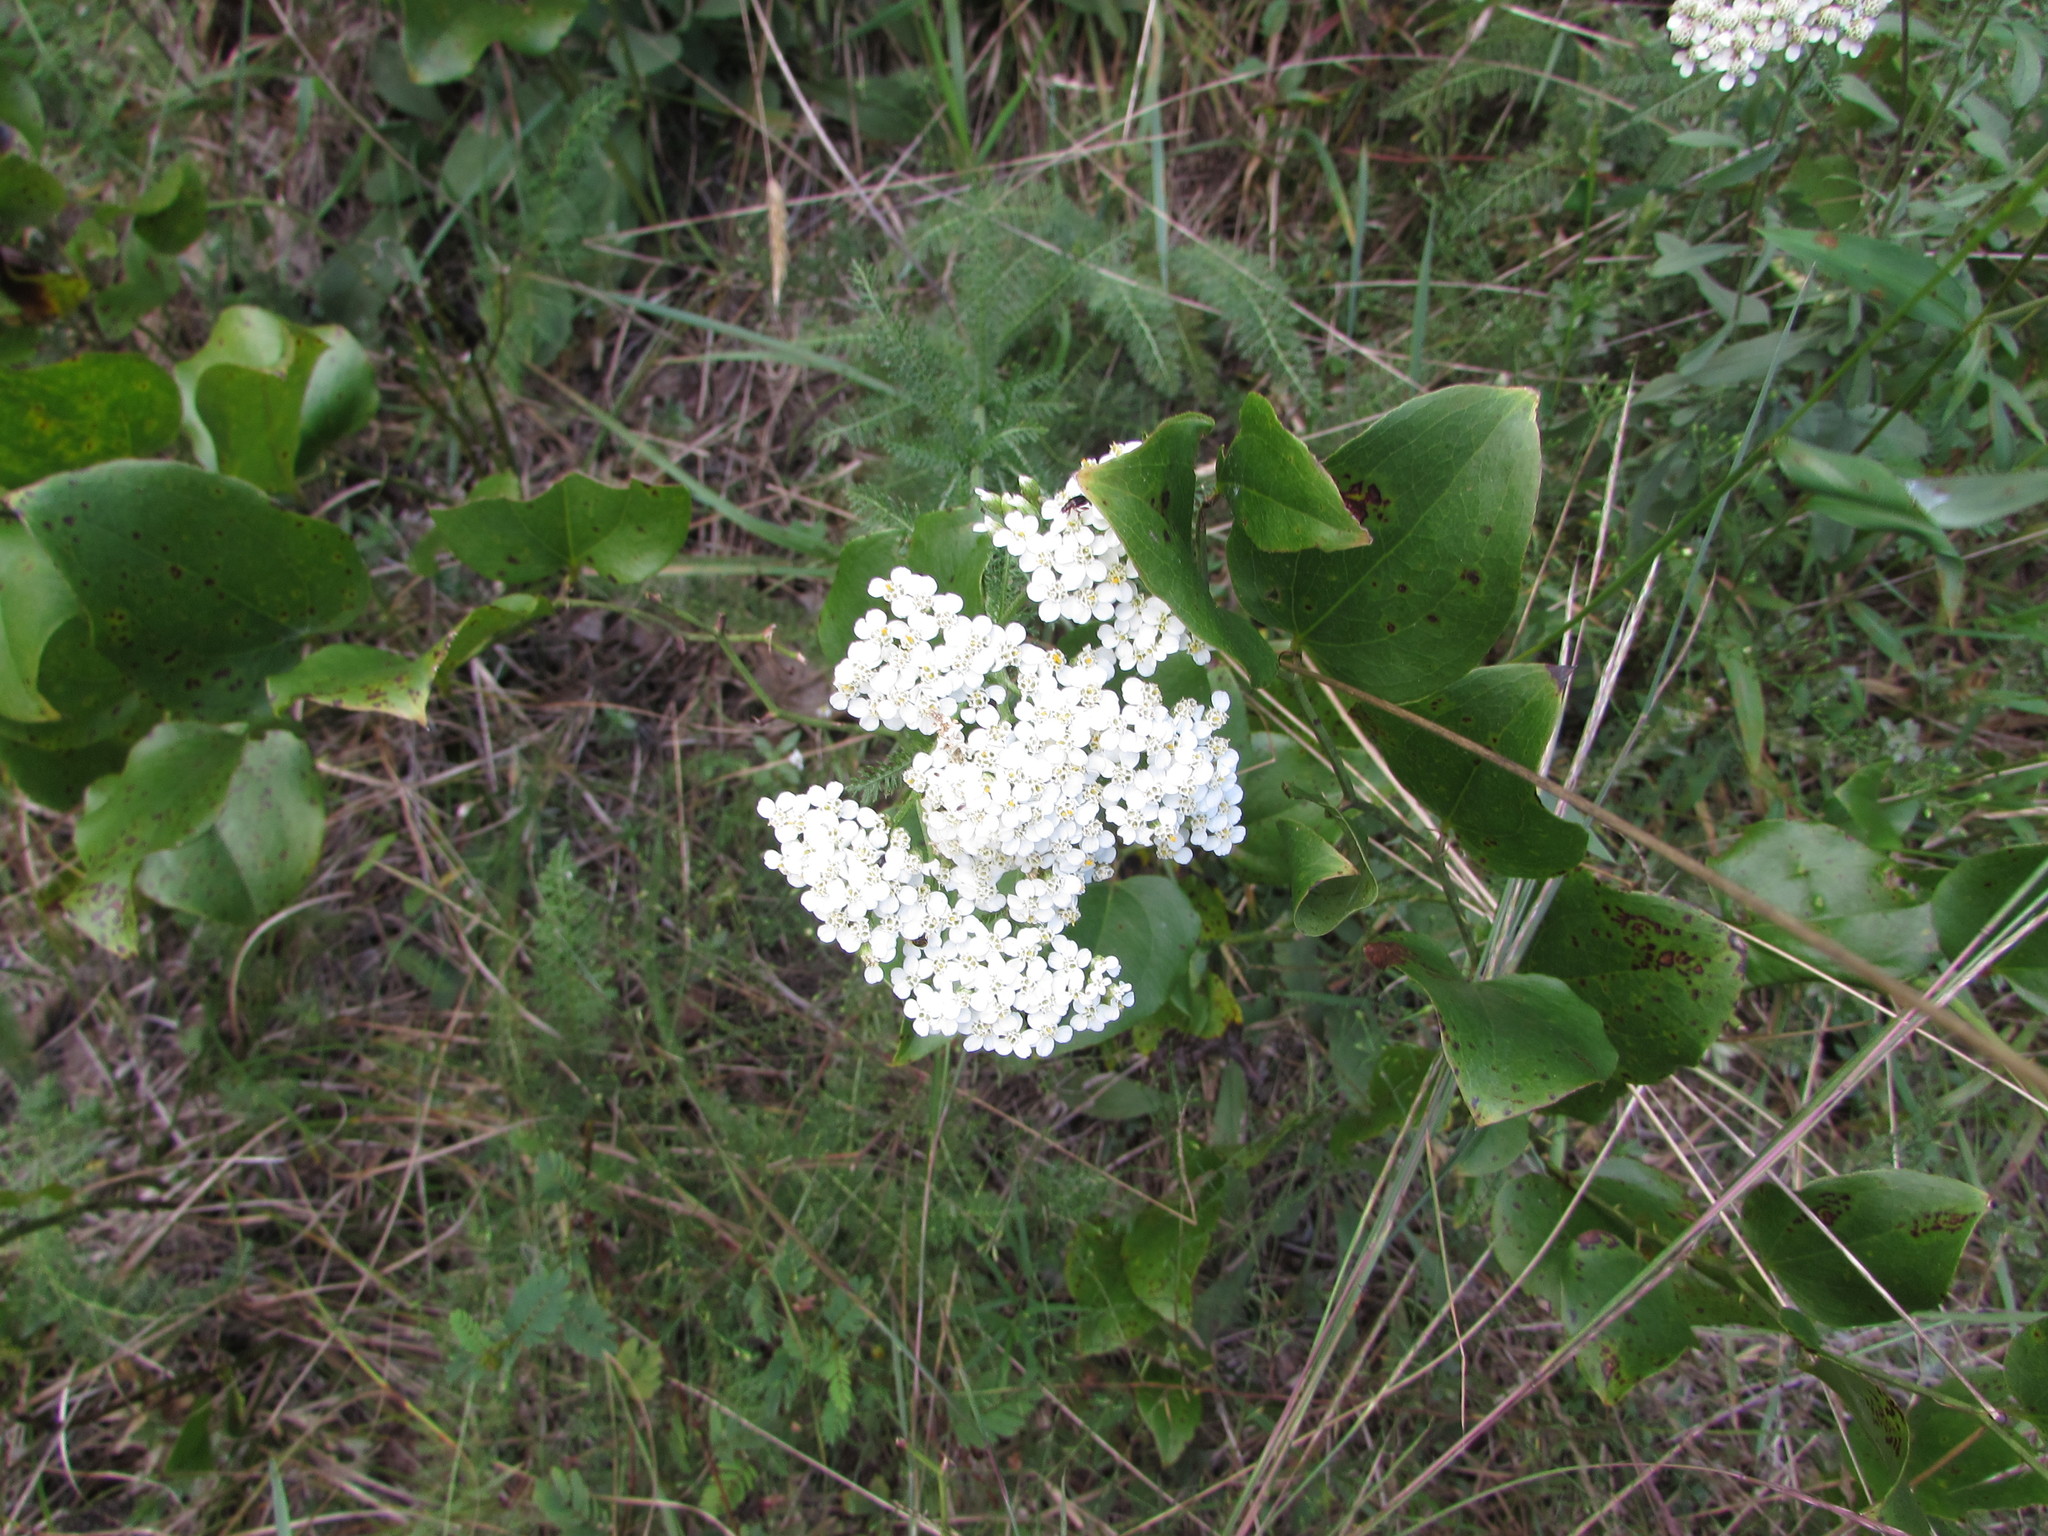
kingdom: Plantae
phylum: Tracheophyta
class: Magnoliopsida
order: Asterales
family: Asteraceae
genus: Achillea
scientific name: Achillea millefolium
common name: Yarrow
